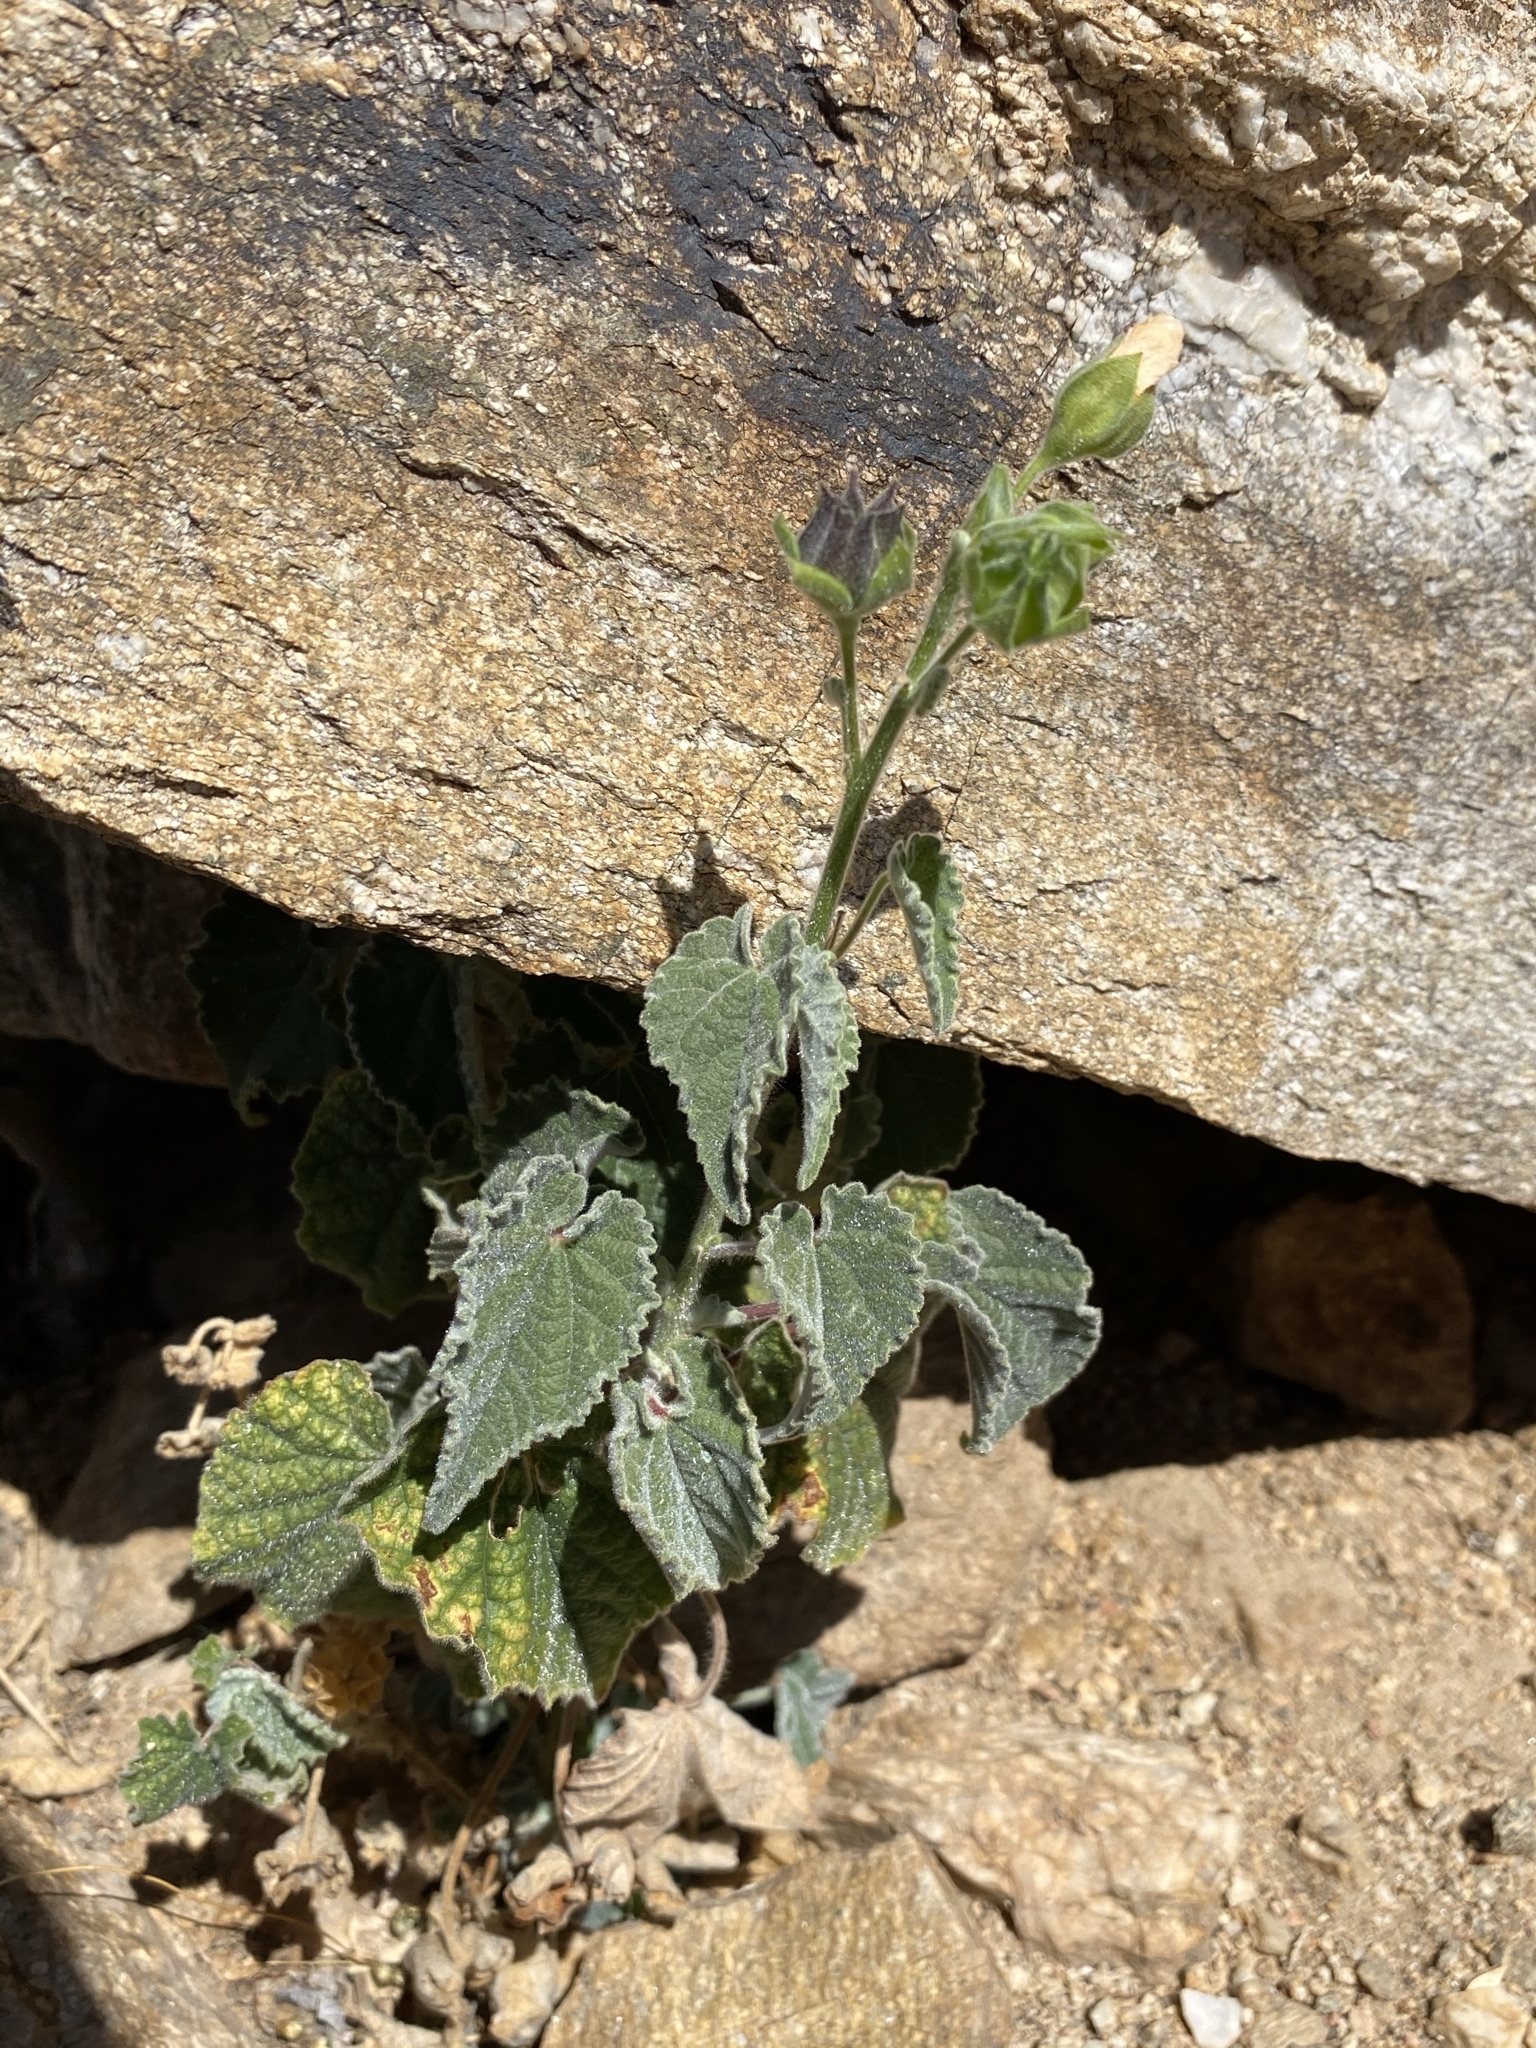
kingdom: Plantae
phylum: Tracheophyta
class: Magnoliopsida
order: Malvales
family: Malvaceae
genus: Abutilon
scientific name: Abutilon parishii
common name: Parish's abutilon
